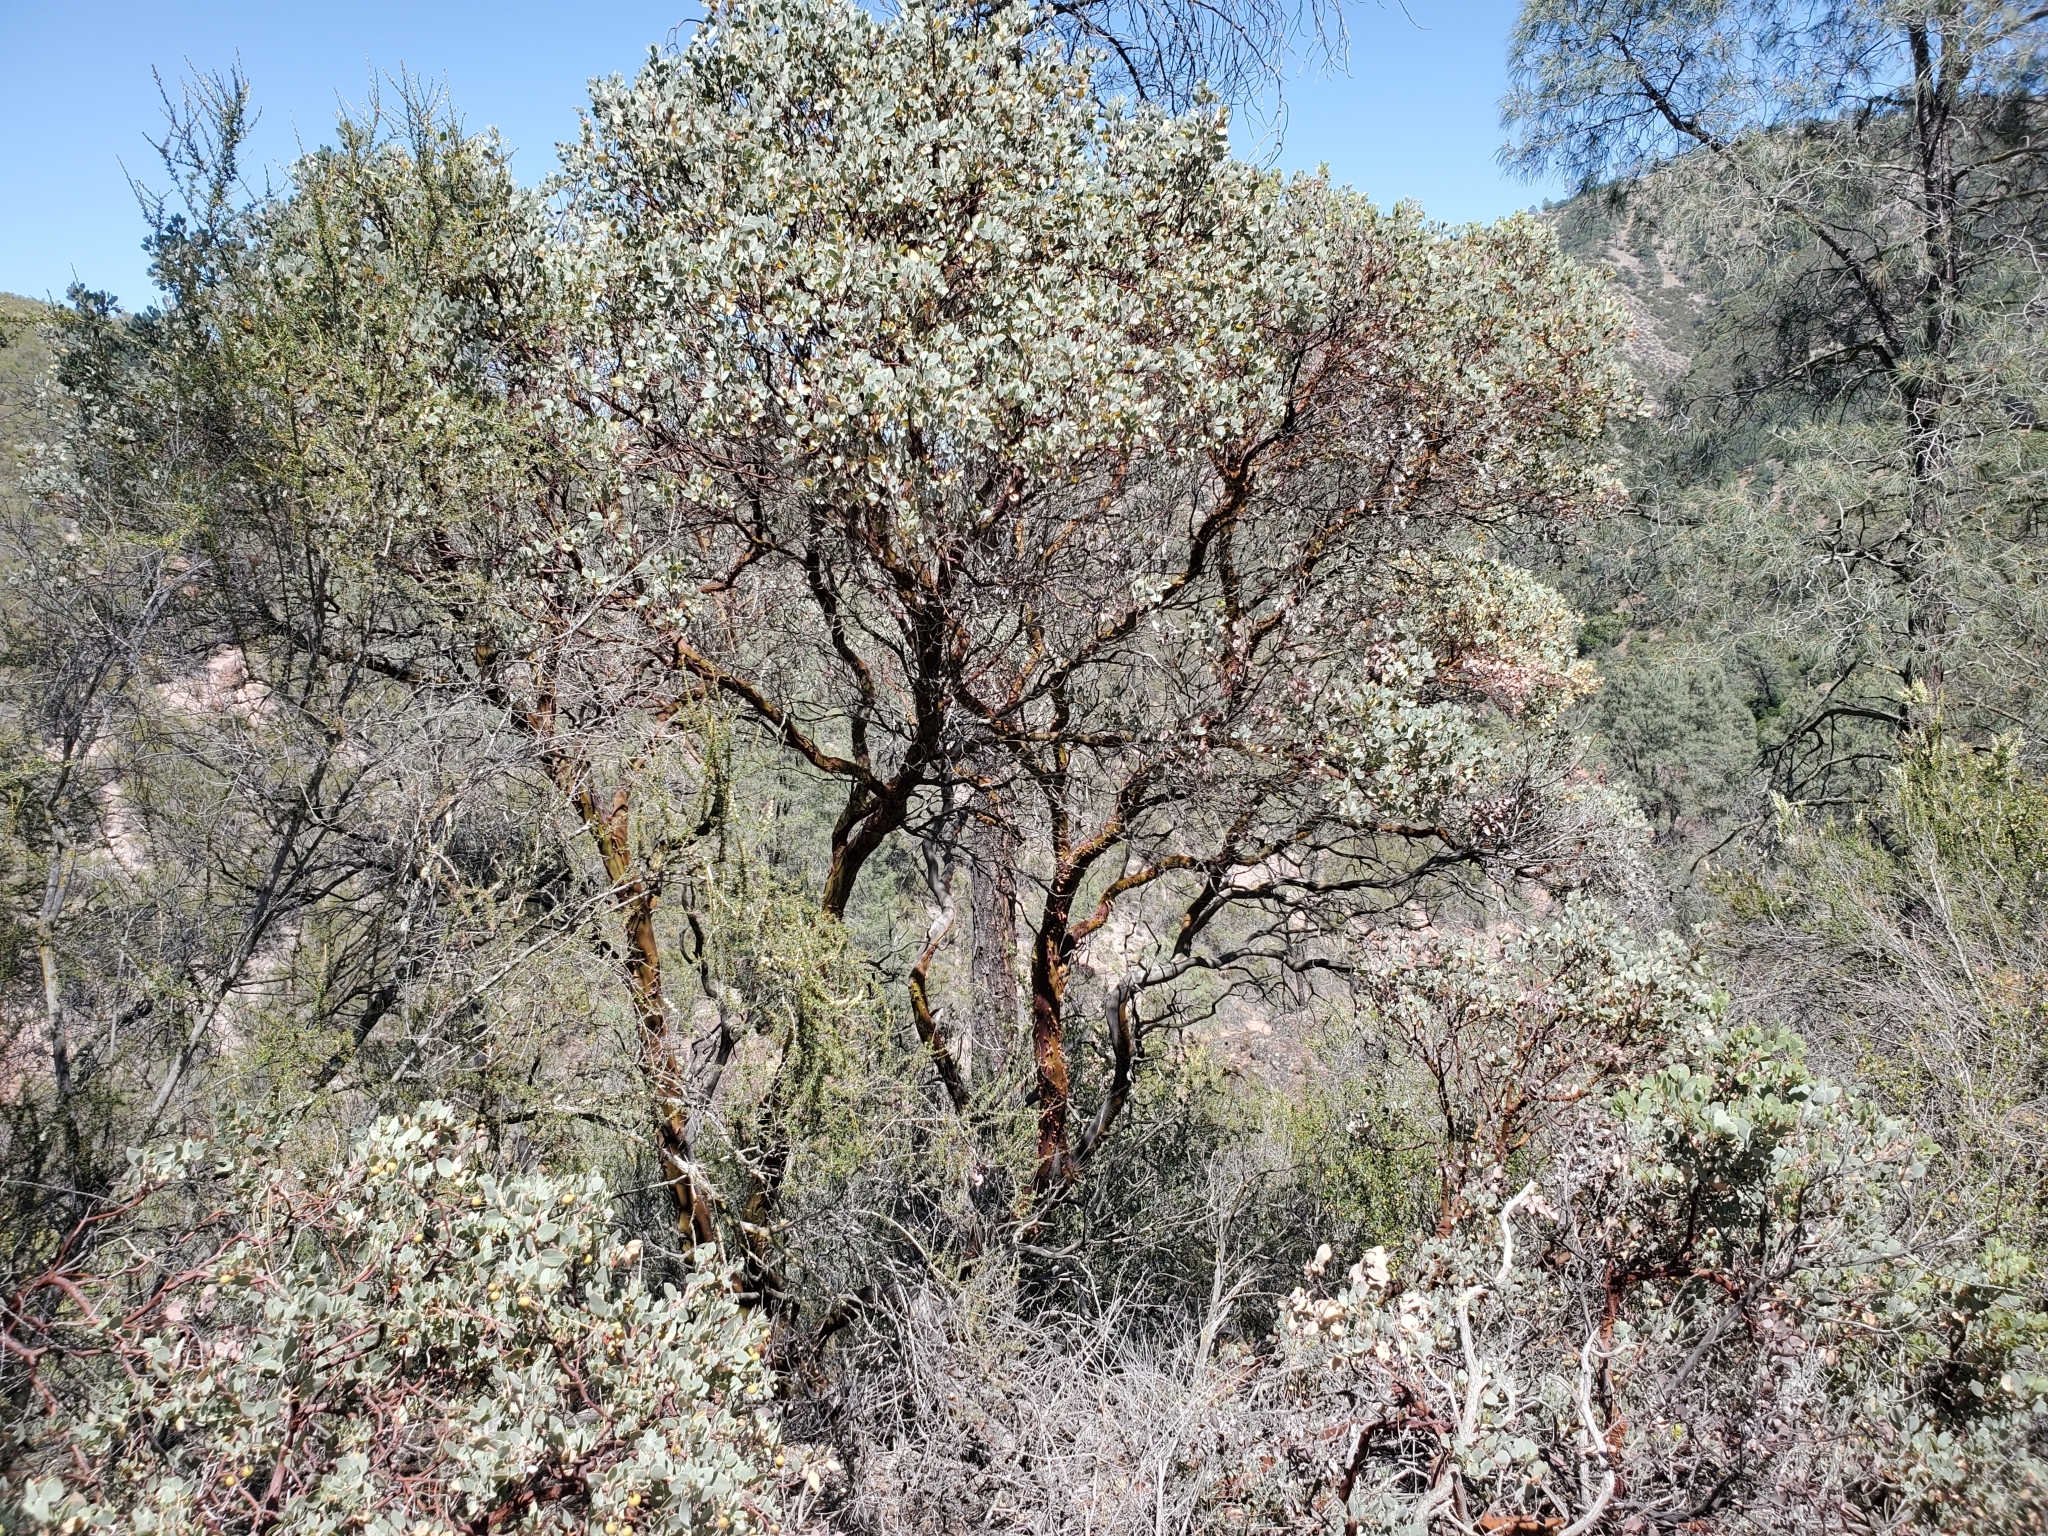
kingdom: Plantae
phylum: Tracheophyta
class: Magnoliopsida
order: Ericales
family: Ericaceae
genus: Arctostaphylos
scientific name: Arctostaphylos glauca
